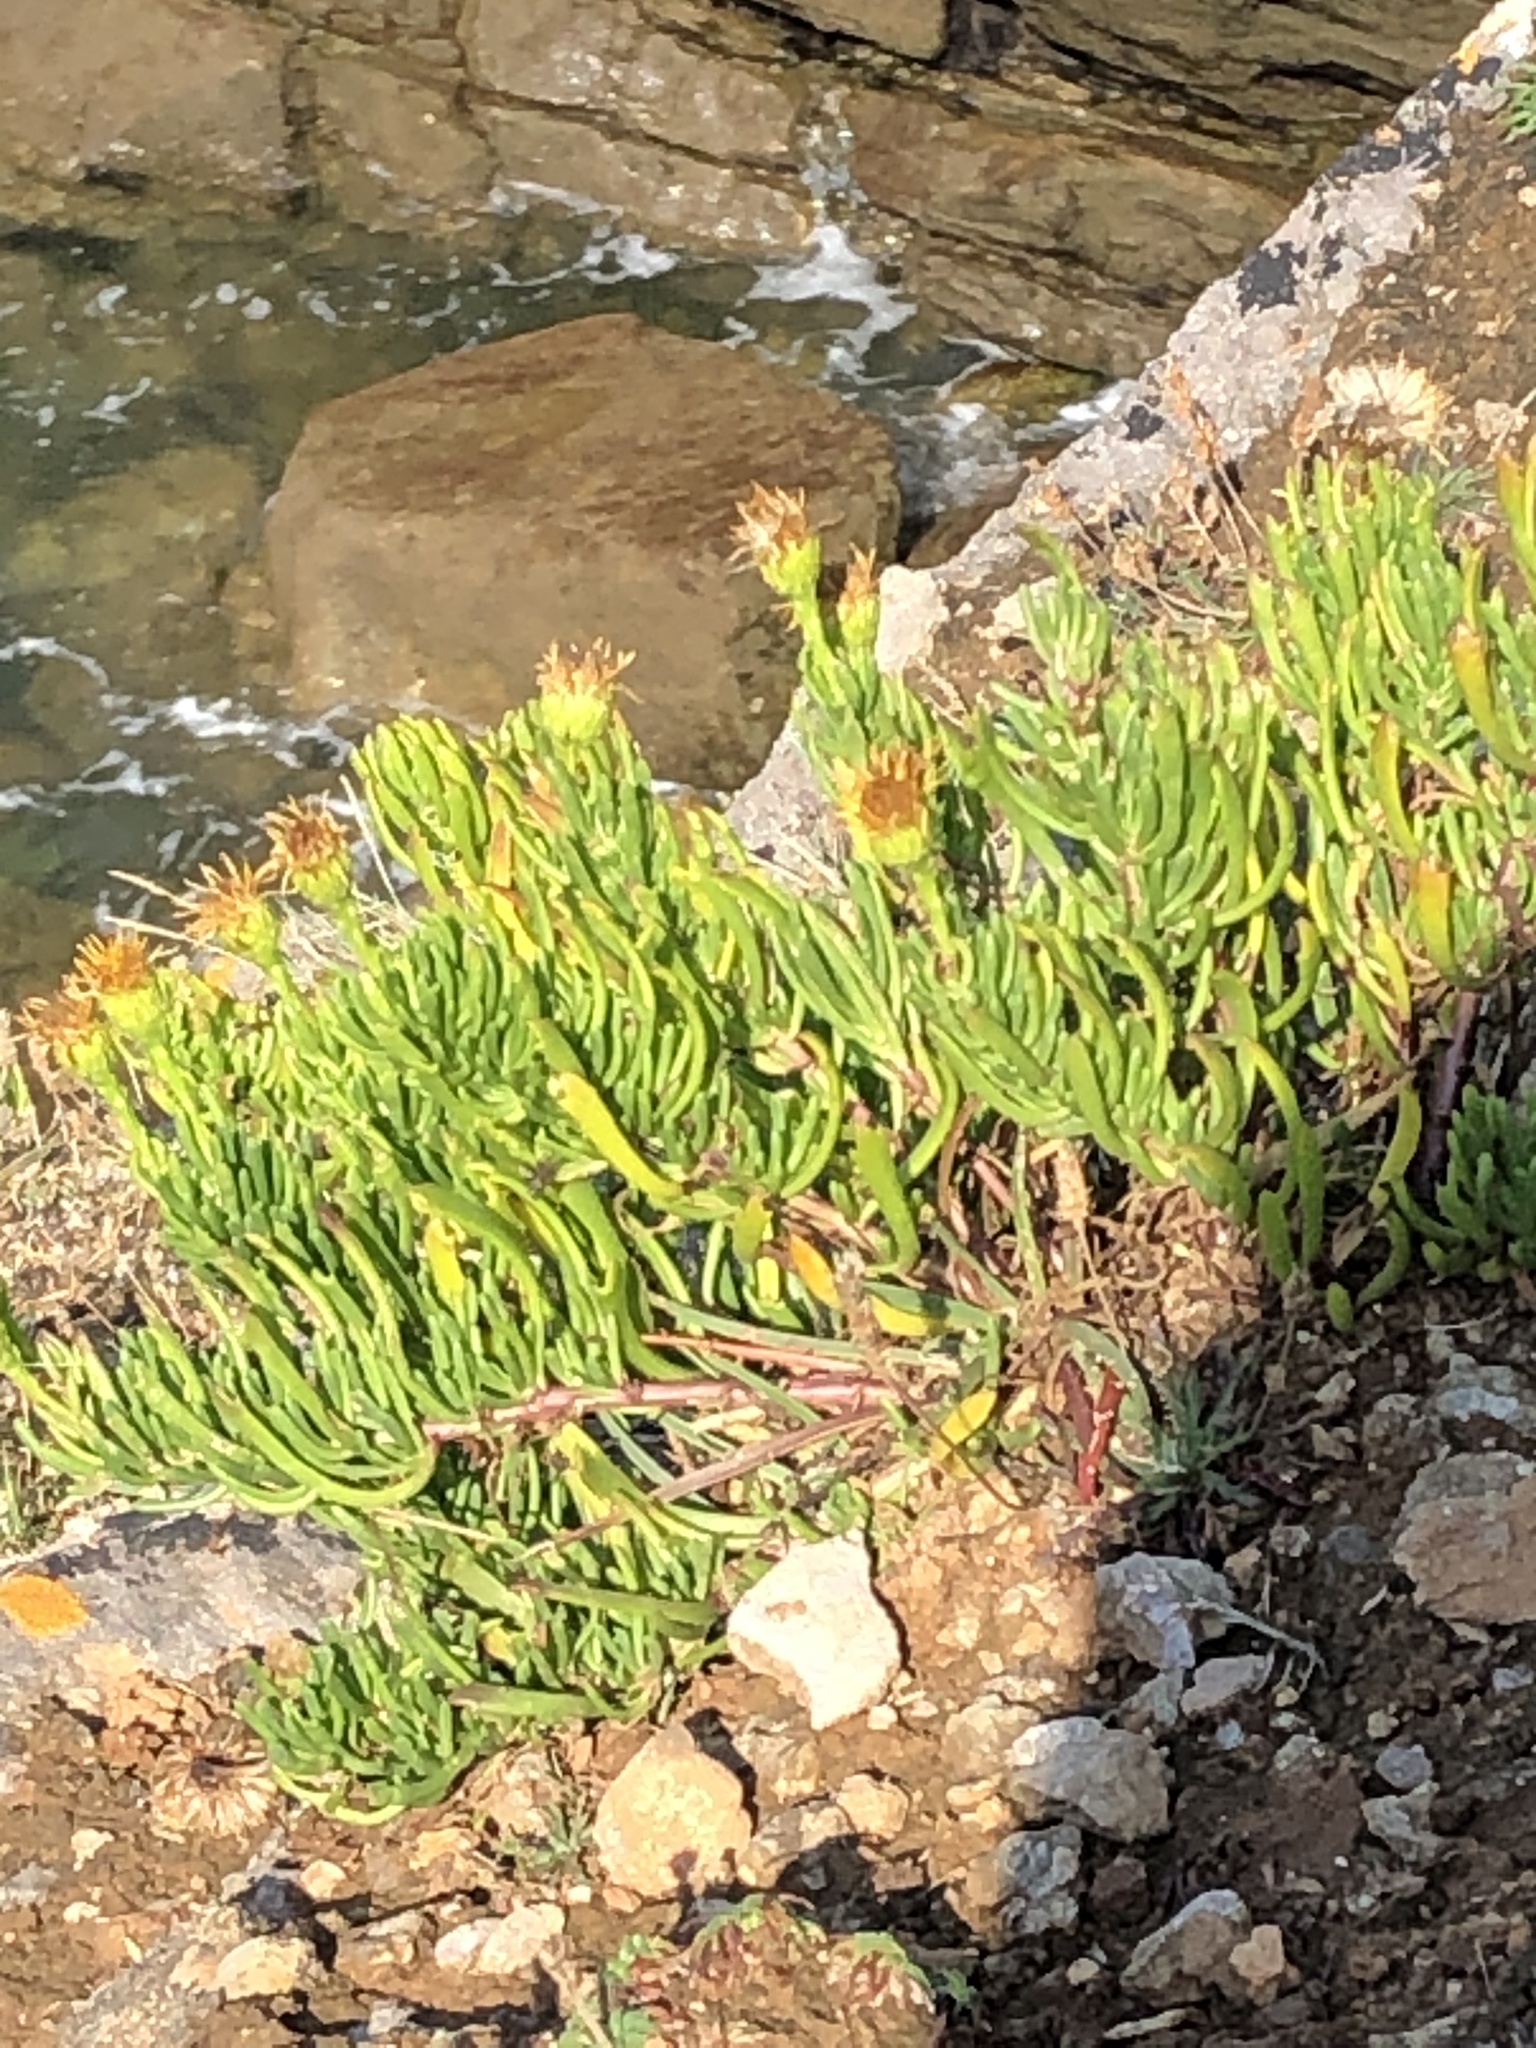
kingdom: Plantae
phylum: Tracheophyta
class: Magnoliopsida
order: Asterales
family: Asteraceae
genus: Limbarda
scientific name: Limbarda crithmoides
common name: Golden samphire
